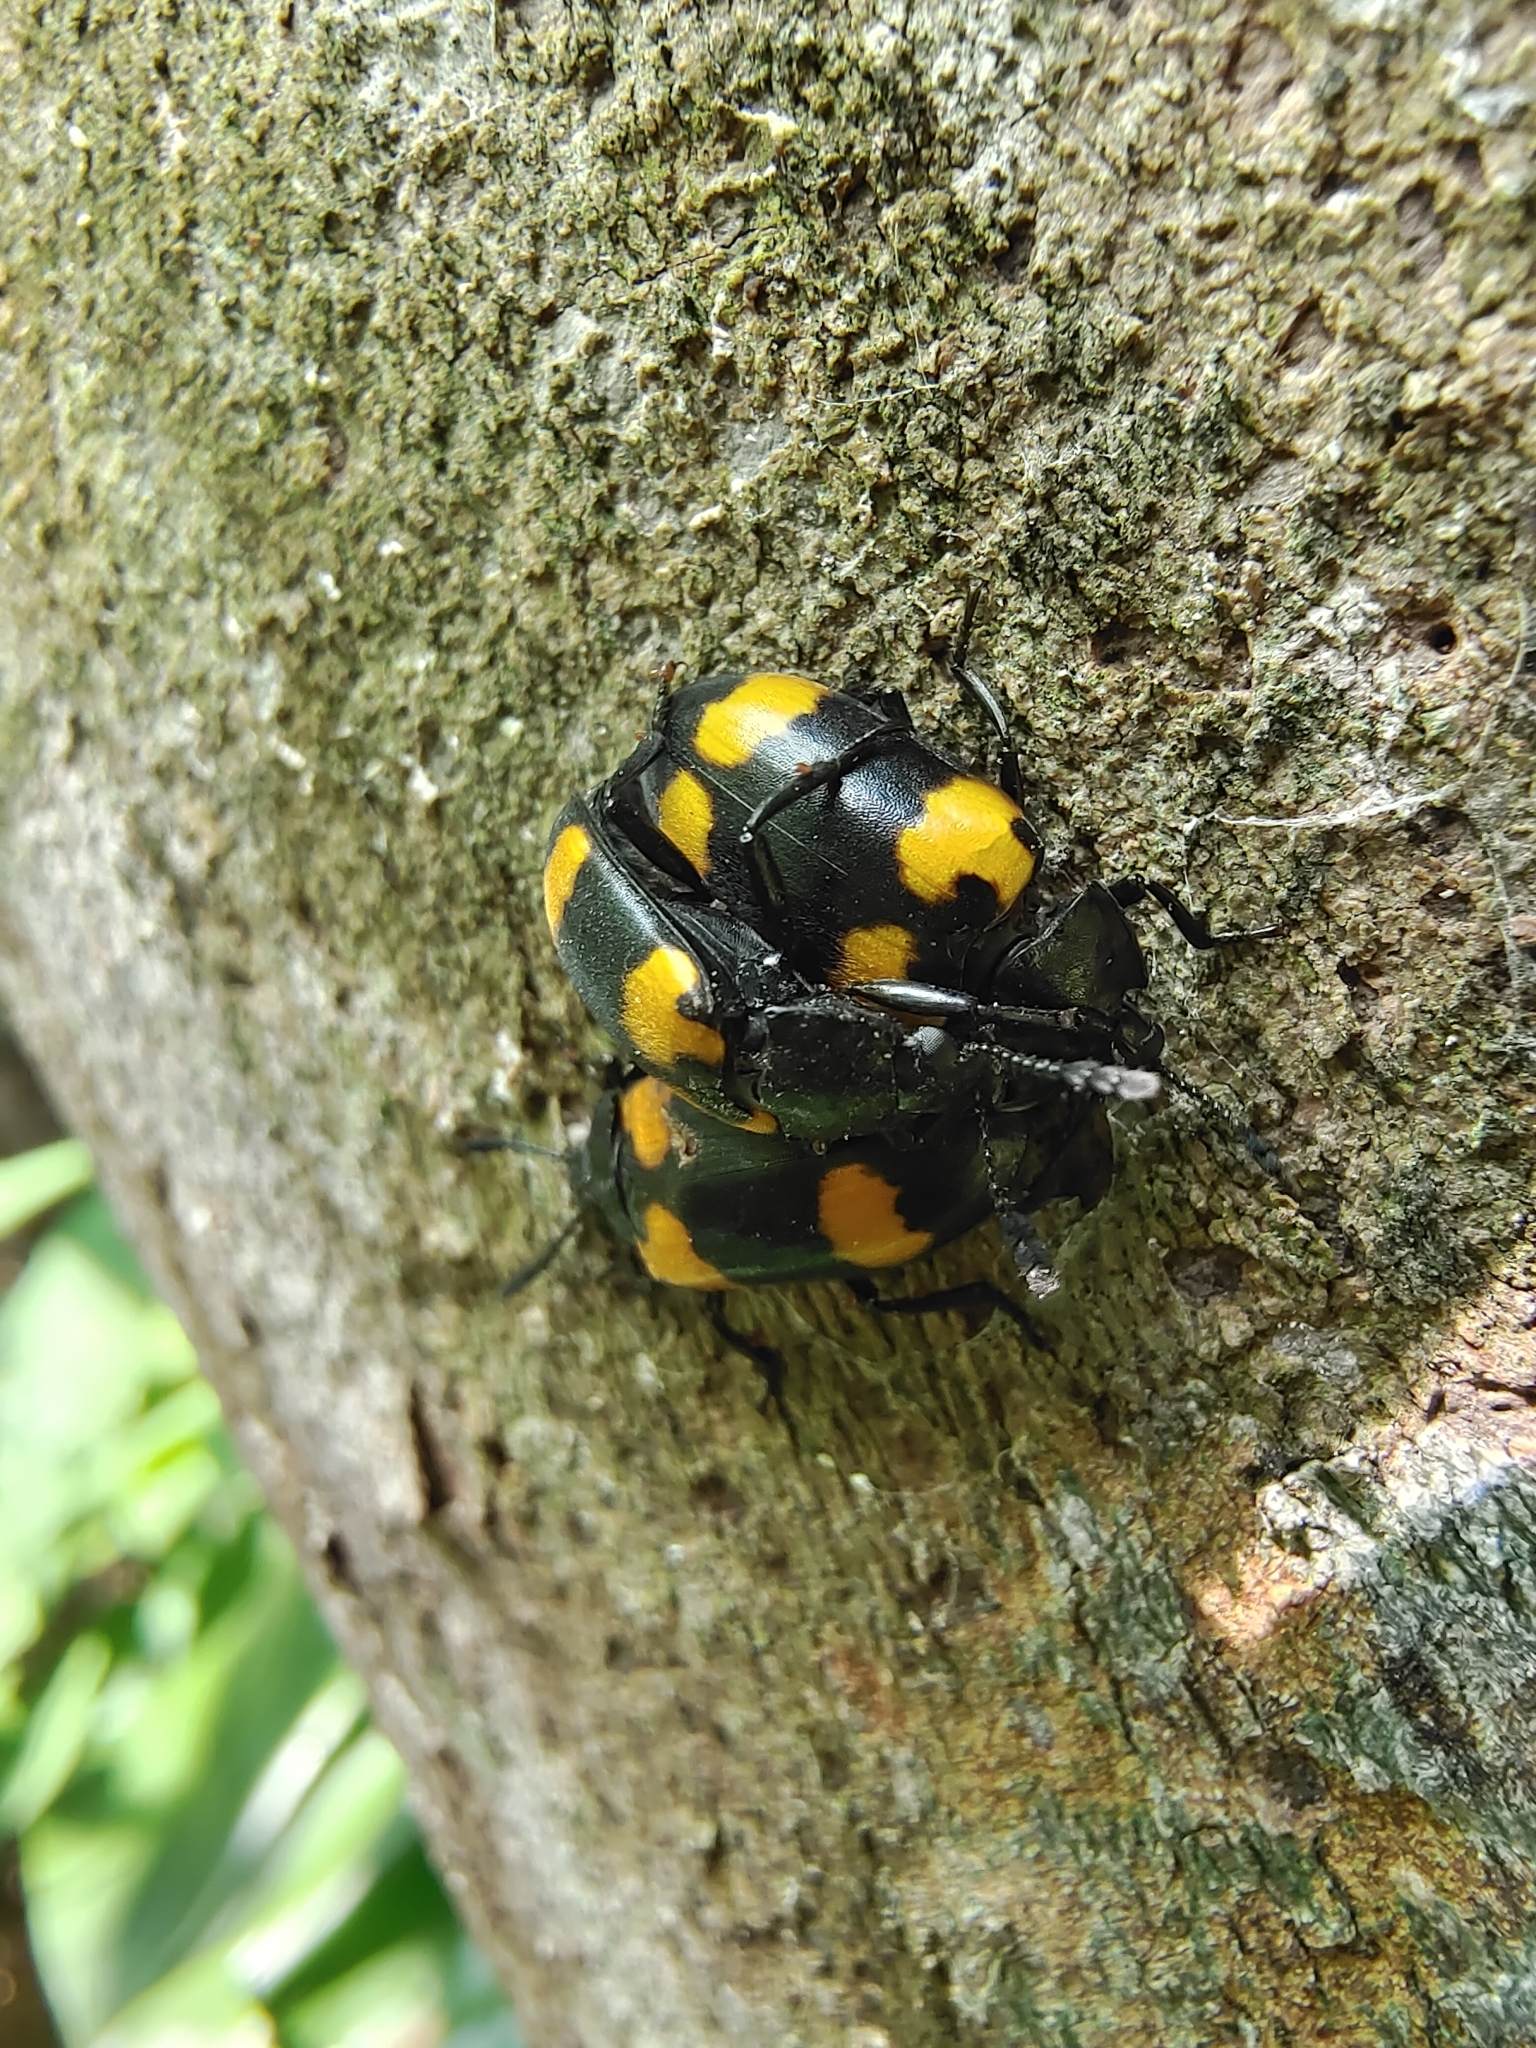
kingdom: Animalia
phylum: Arthropoda
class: Insecta
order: Coleoptera
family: Erotylidae
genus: Episcapha
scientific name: Episcapha
